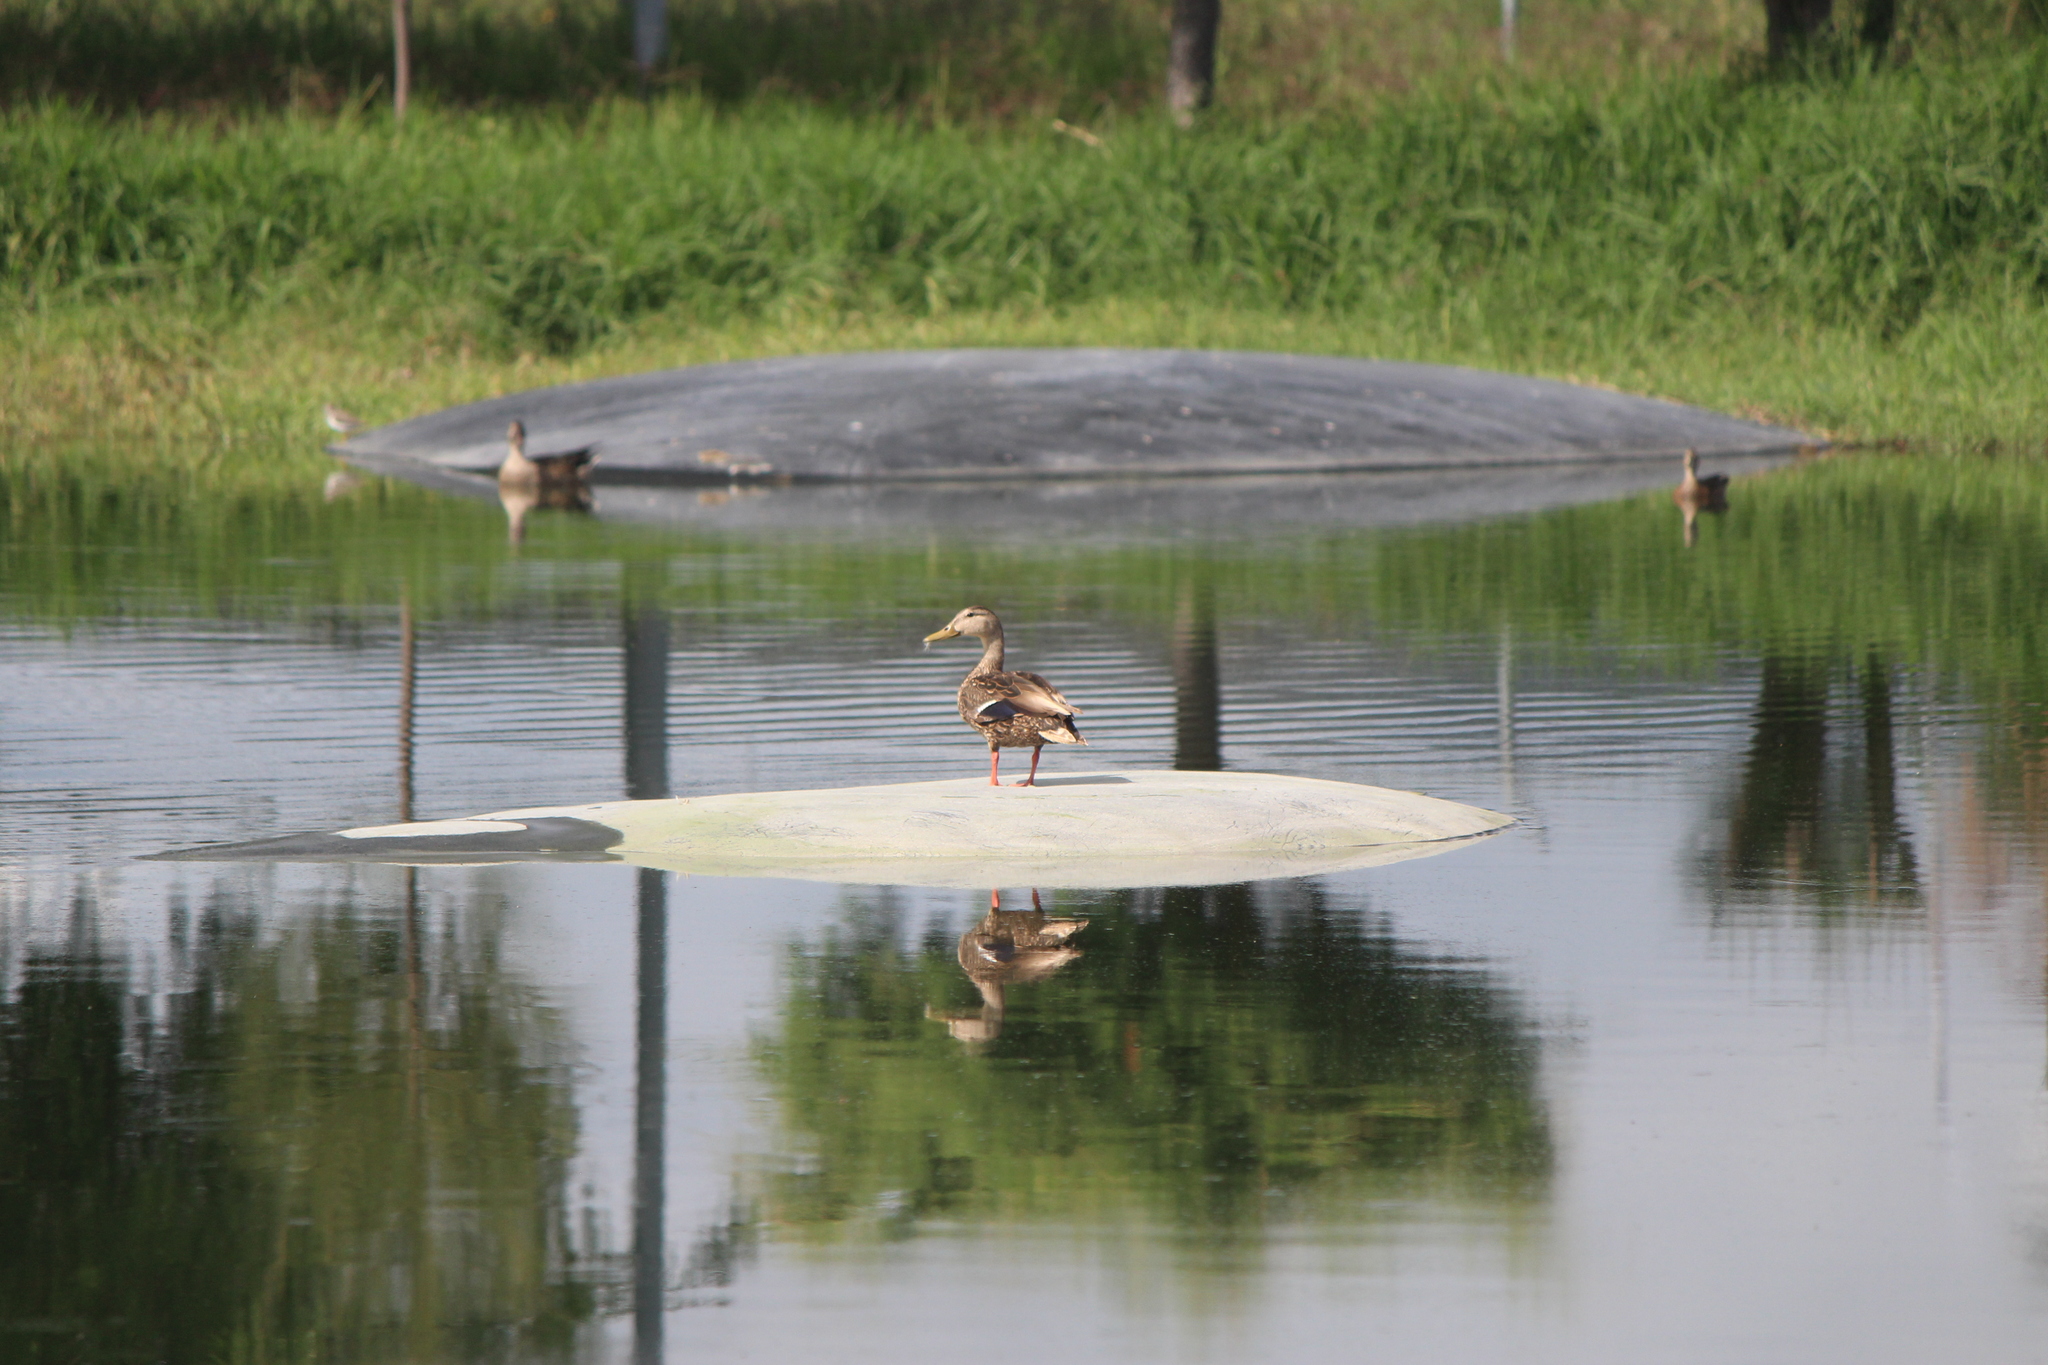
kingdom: Animalia
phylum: Chordata
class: Aves
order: Anseriformes
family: Anatidae
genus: Anas
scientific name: Anas diazi
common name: Mexican duck
